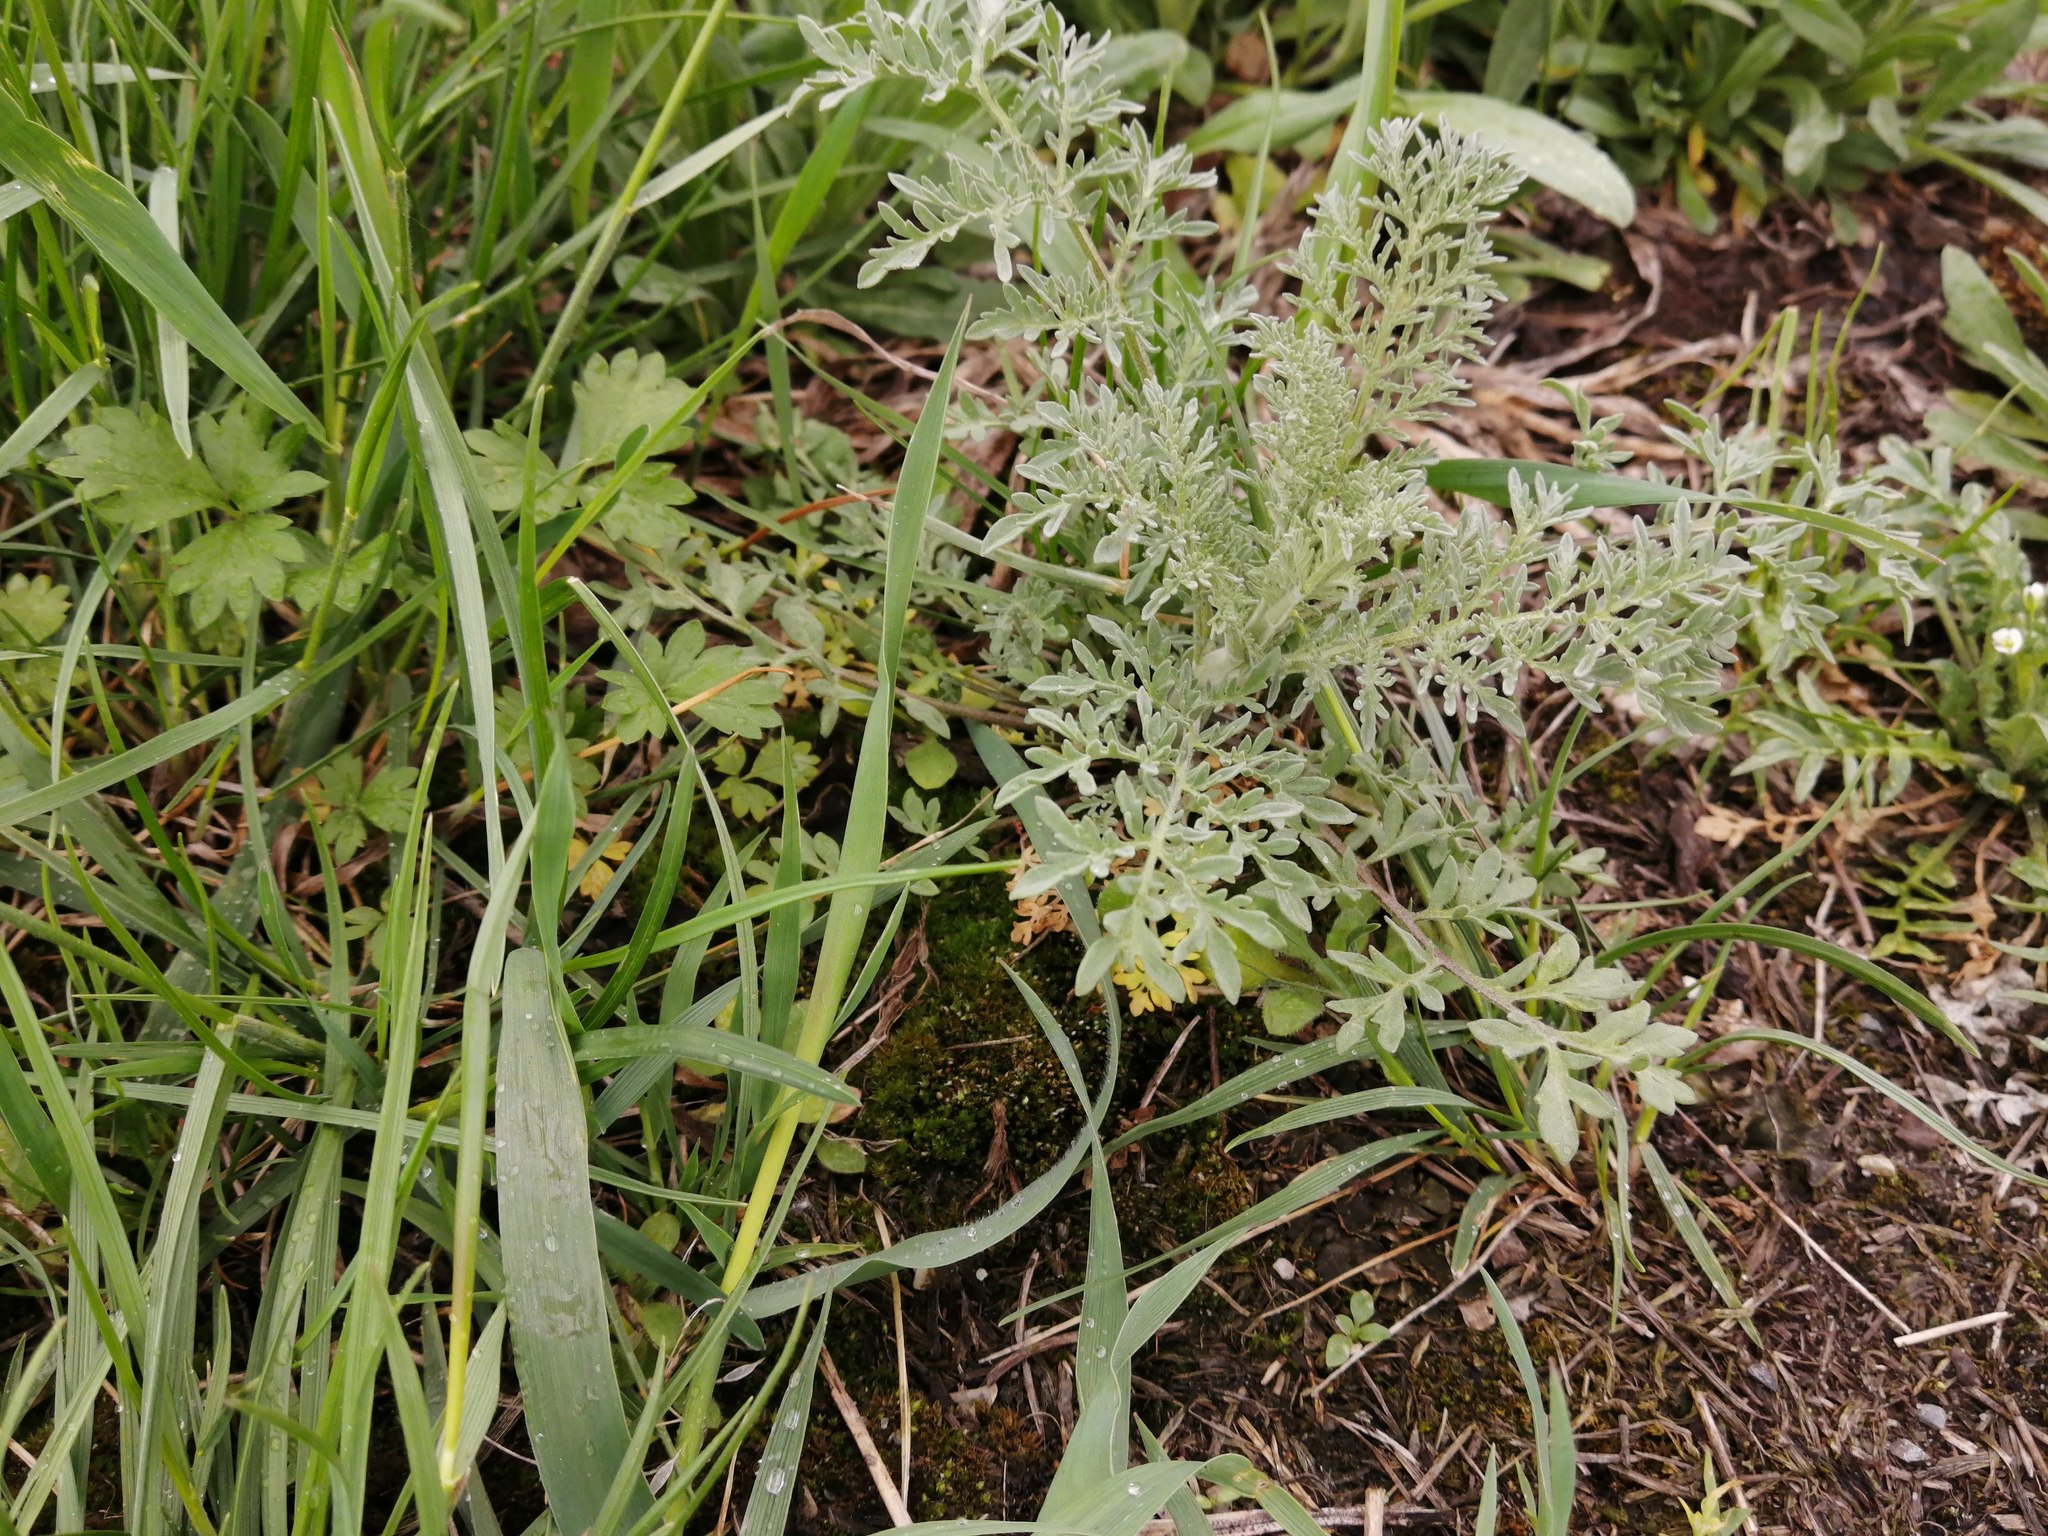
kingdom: Plantae
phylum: Tracheophyta
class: Magnoliopsida
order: Brassicales
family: Brassicaceae
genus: Descurainia
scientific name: Descurainia sophia
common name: Flixweed
